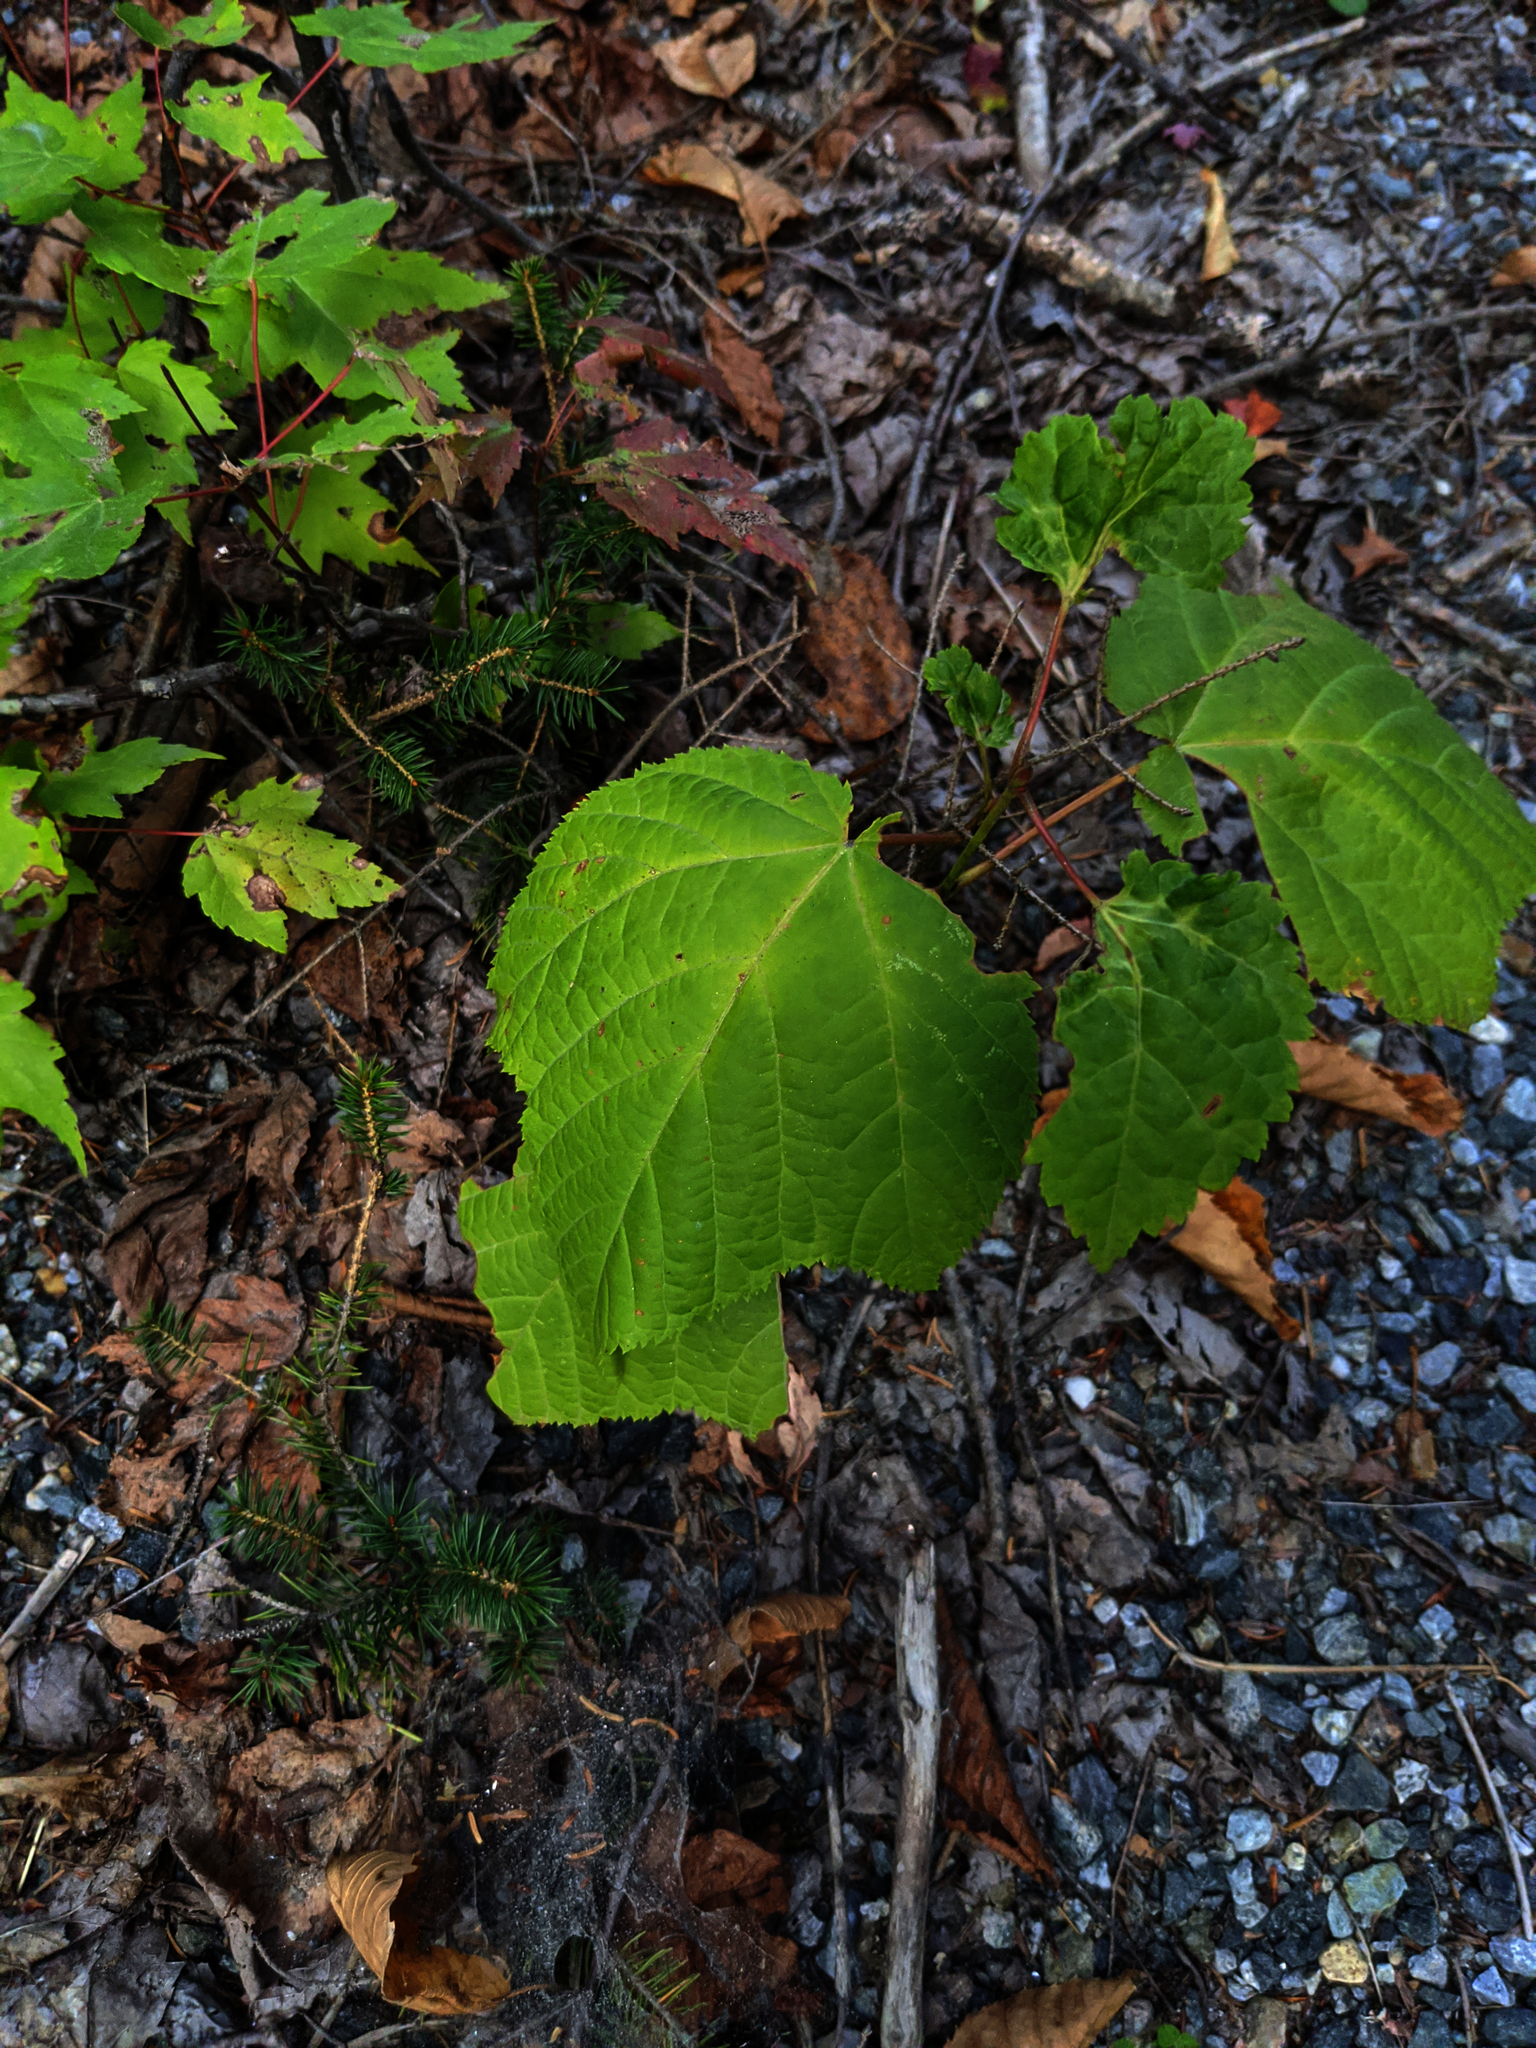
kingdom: Plantae
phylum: Tracheophyta
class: Magnoliopsida
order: Sapindales
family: Sapindaceae
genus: Acer
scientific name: Acer pensylvanicum
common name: Moosewood
